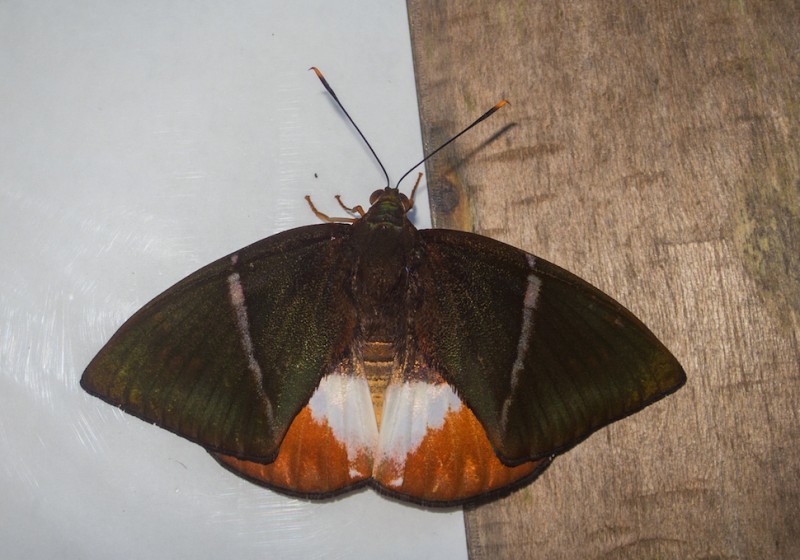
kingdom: Animalia
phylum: Arthropoda
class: Insecta
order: Lepidoptera
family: Castniidae
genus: Castniomera
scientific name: Castniomera drucei
